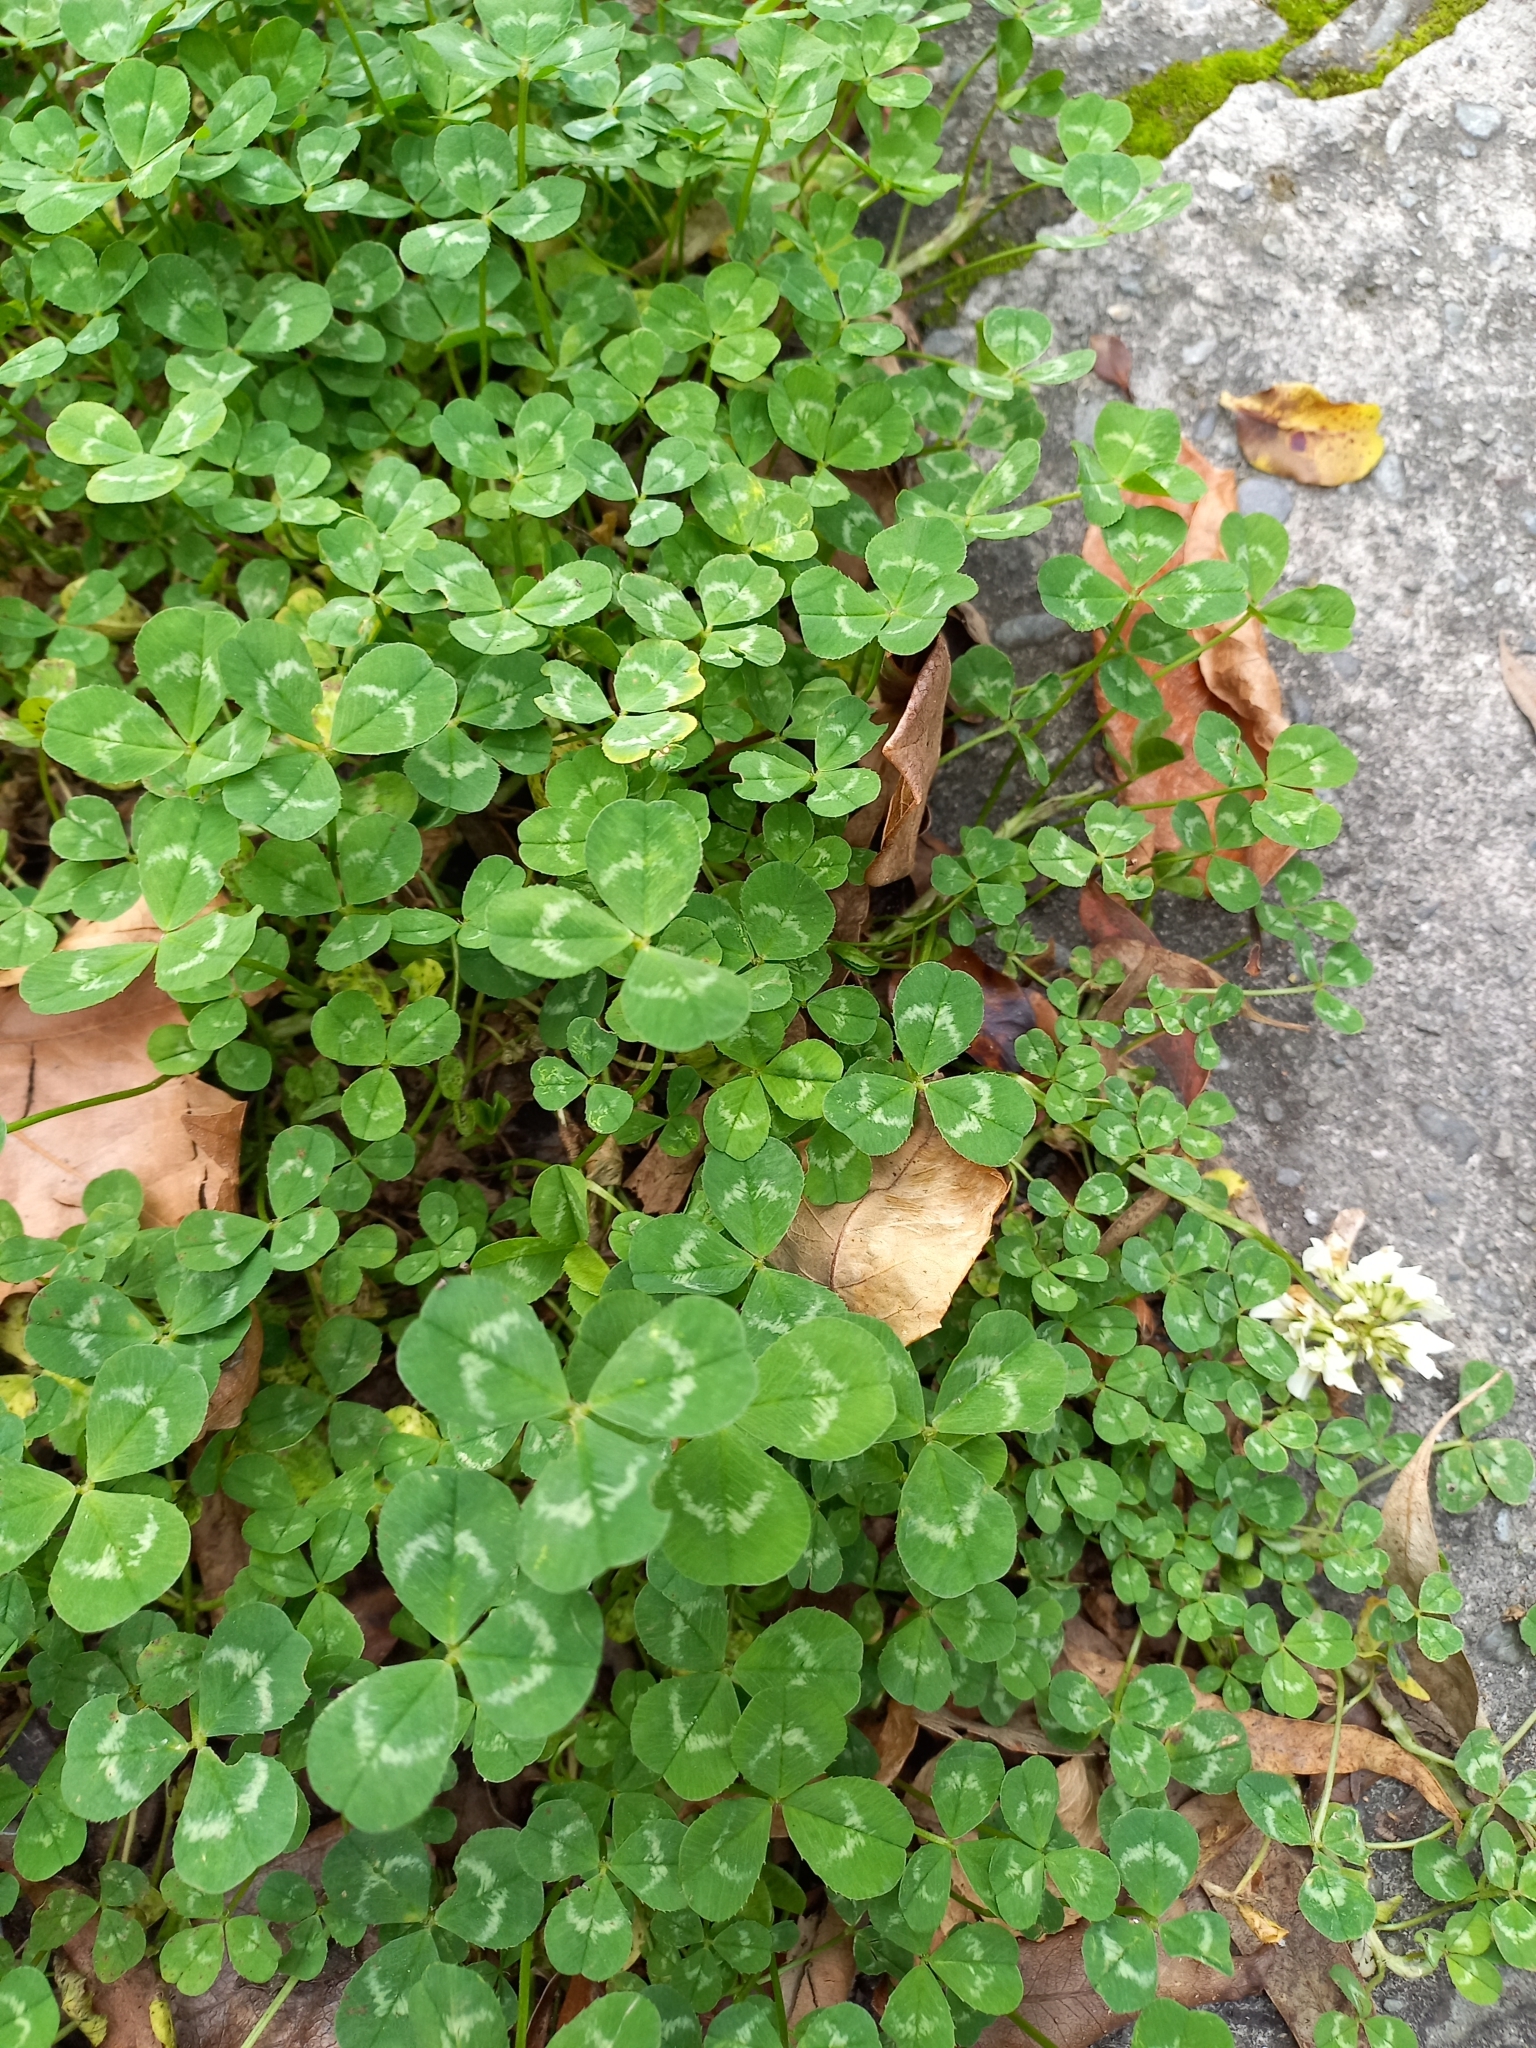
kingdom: Plantae
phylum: Tracheophyta
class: Magnoliopsida
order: Fabales
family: Fabaceae
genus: Trifolium
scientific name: Trifolium repens
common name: White clover
